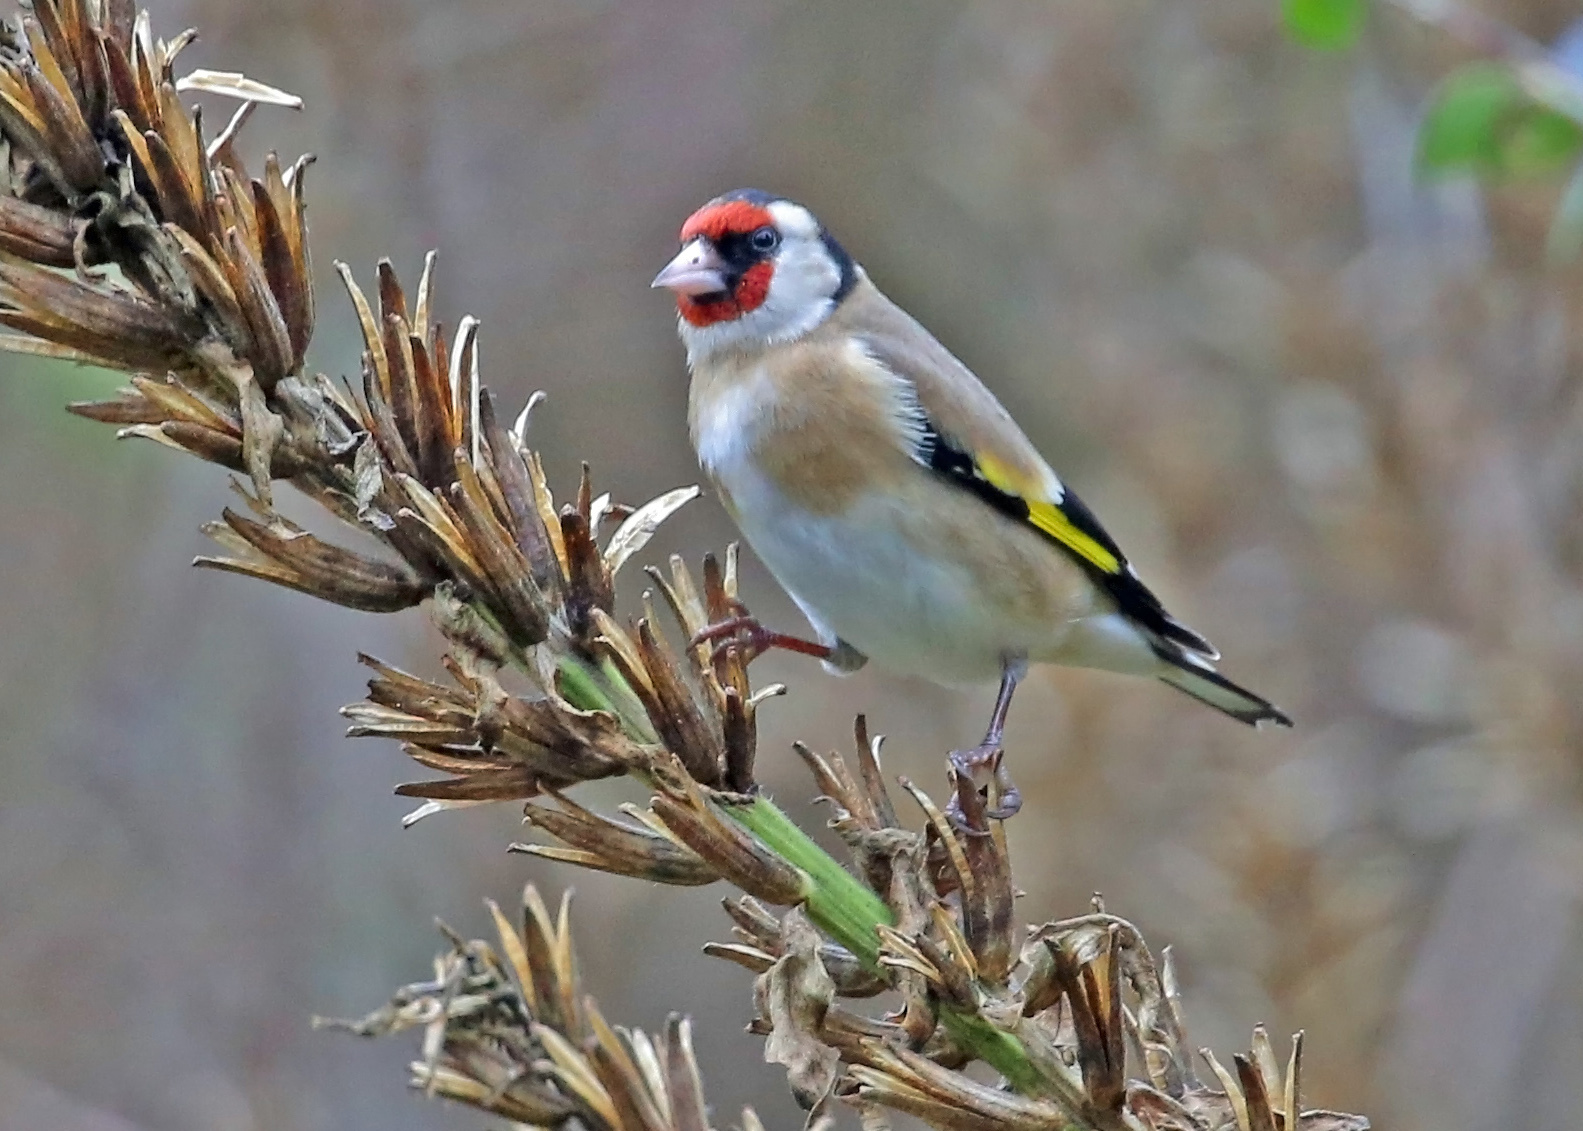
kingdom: Animalia
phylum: Chordata
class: Aves
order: Passeriformes
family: Fringillidae
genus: Carduelis
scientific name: Carduelis carduelis
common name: European goldfinch
